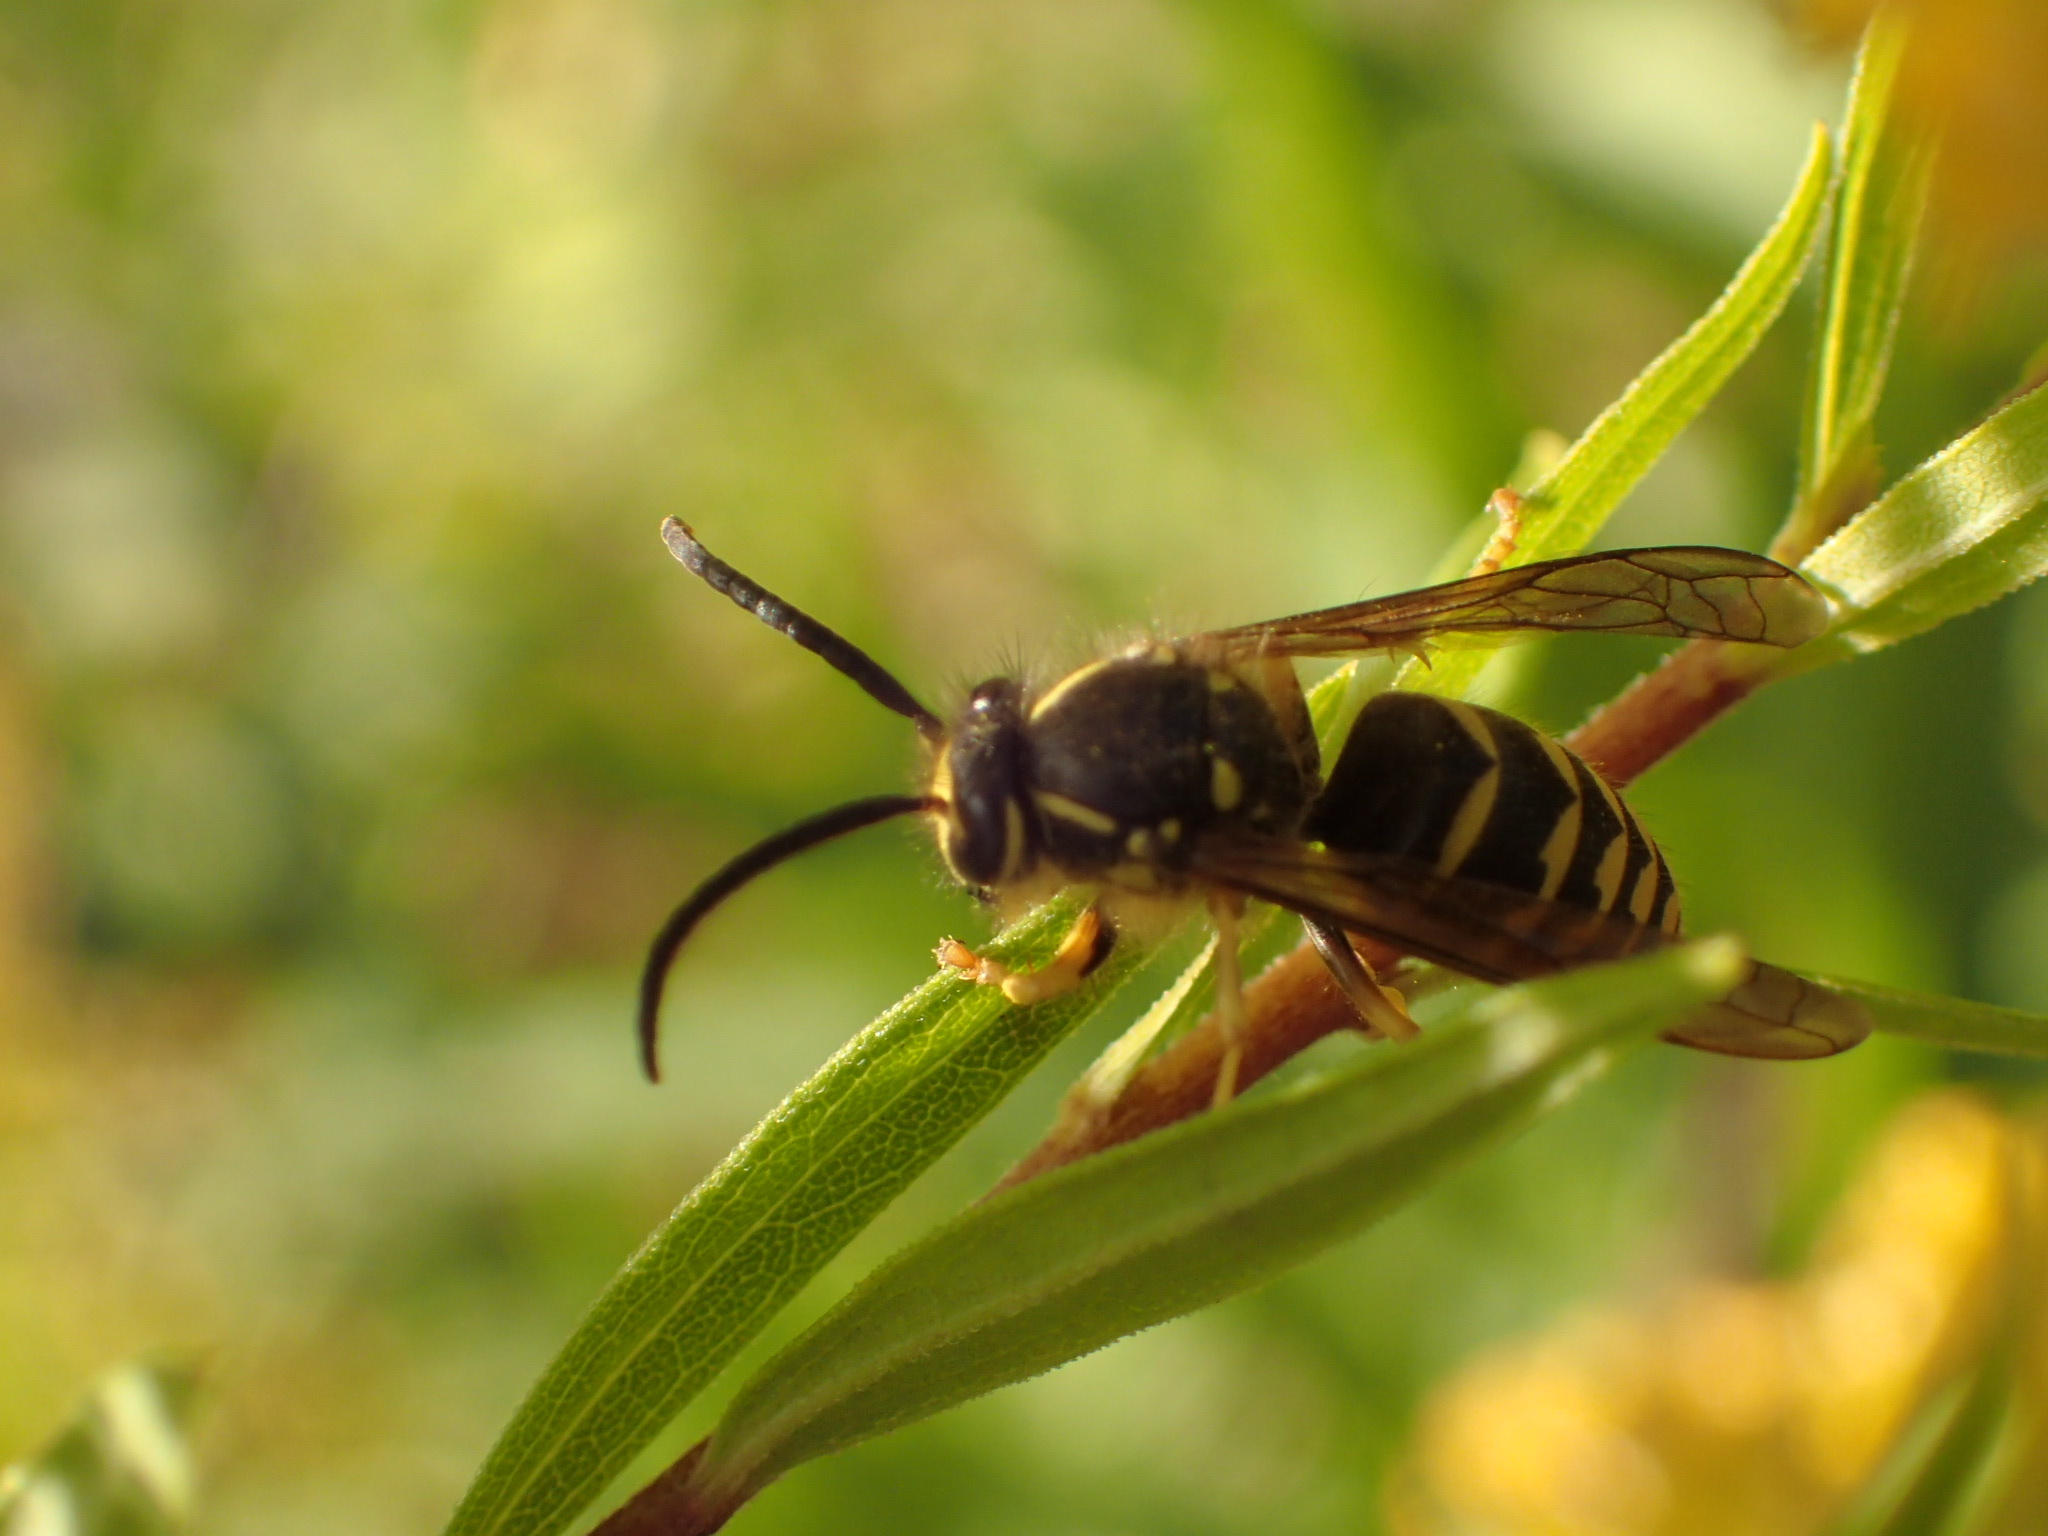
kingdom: Animalia
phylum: Arthropoda
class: Insecta
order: Hymenoptera
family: Vespidae
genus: Dolichovespula
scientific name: Dolichovespula arenaria
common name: Aerial yellowjacket
